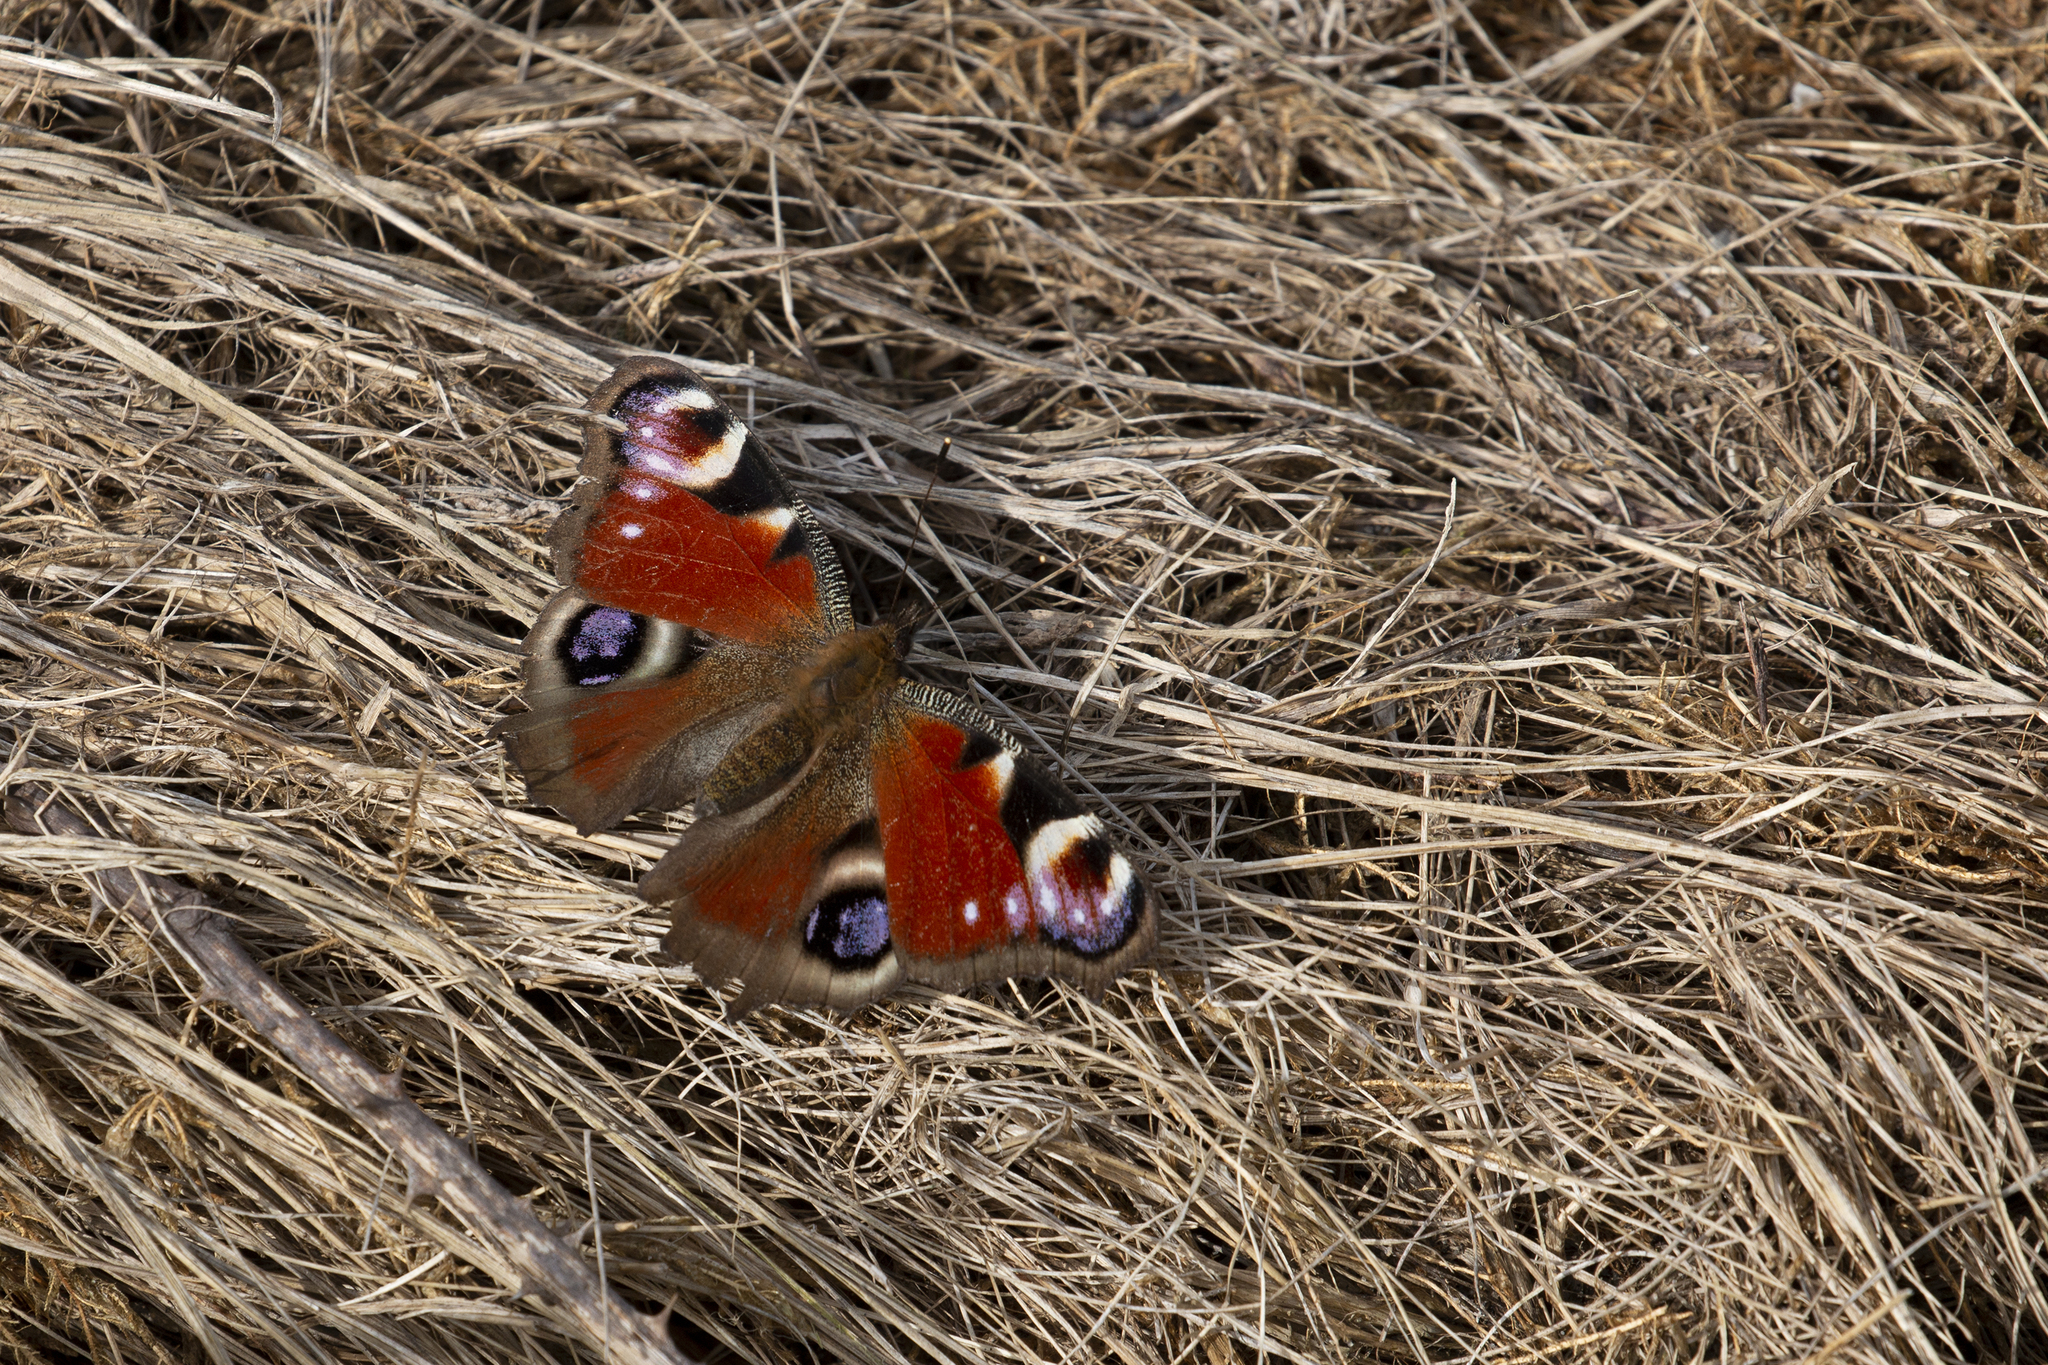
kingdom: Animalia
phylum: Arthropoda
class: Insecta
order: Lepidoptera
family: Nymphalidae
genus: Aglais
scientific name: Aglais io
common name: Peacock
